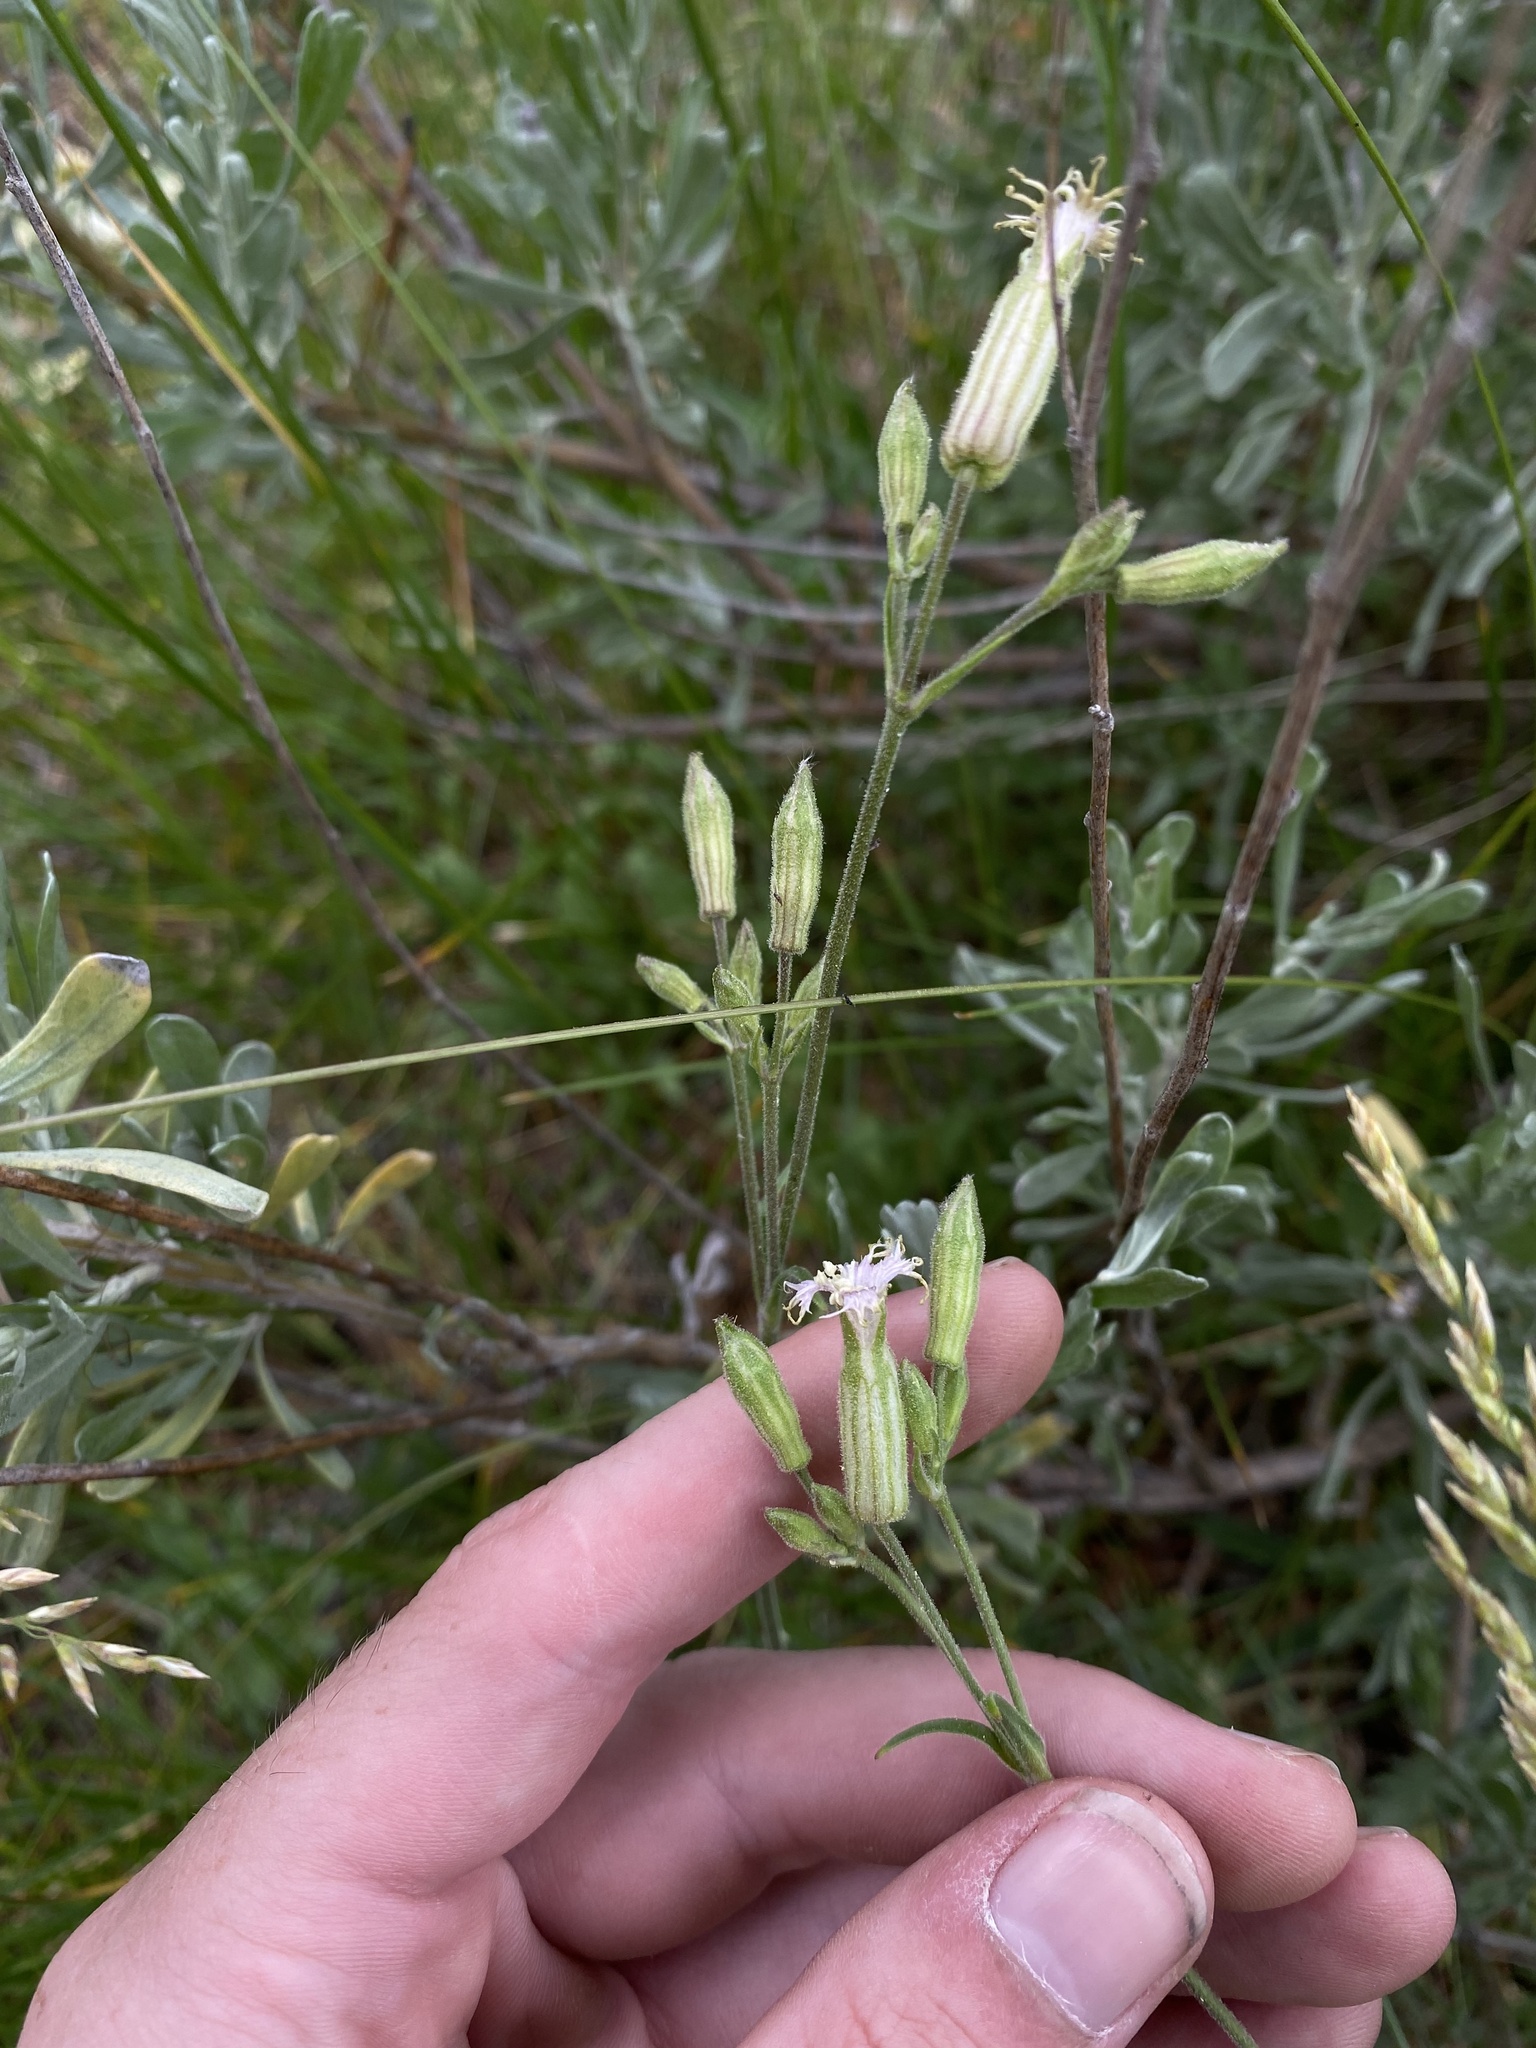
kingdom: Plantae
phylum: Tracheophyta
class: Magnoliopsida
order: Caryophyllales
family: Caryophyllaceae
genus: Silene
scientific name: Silene oregana
